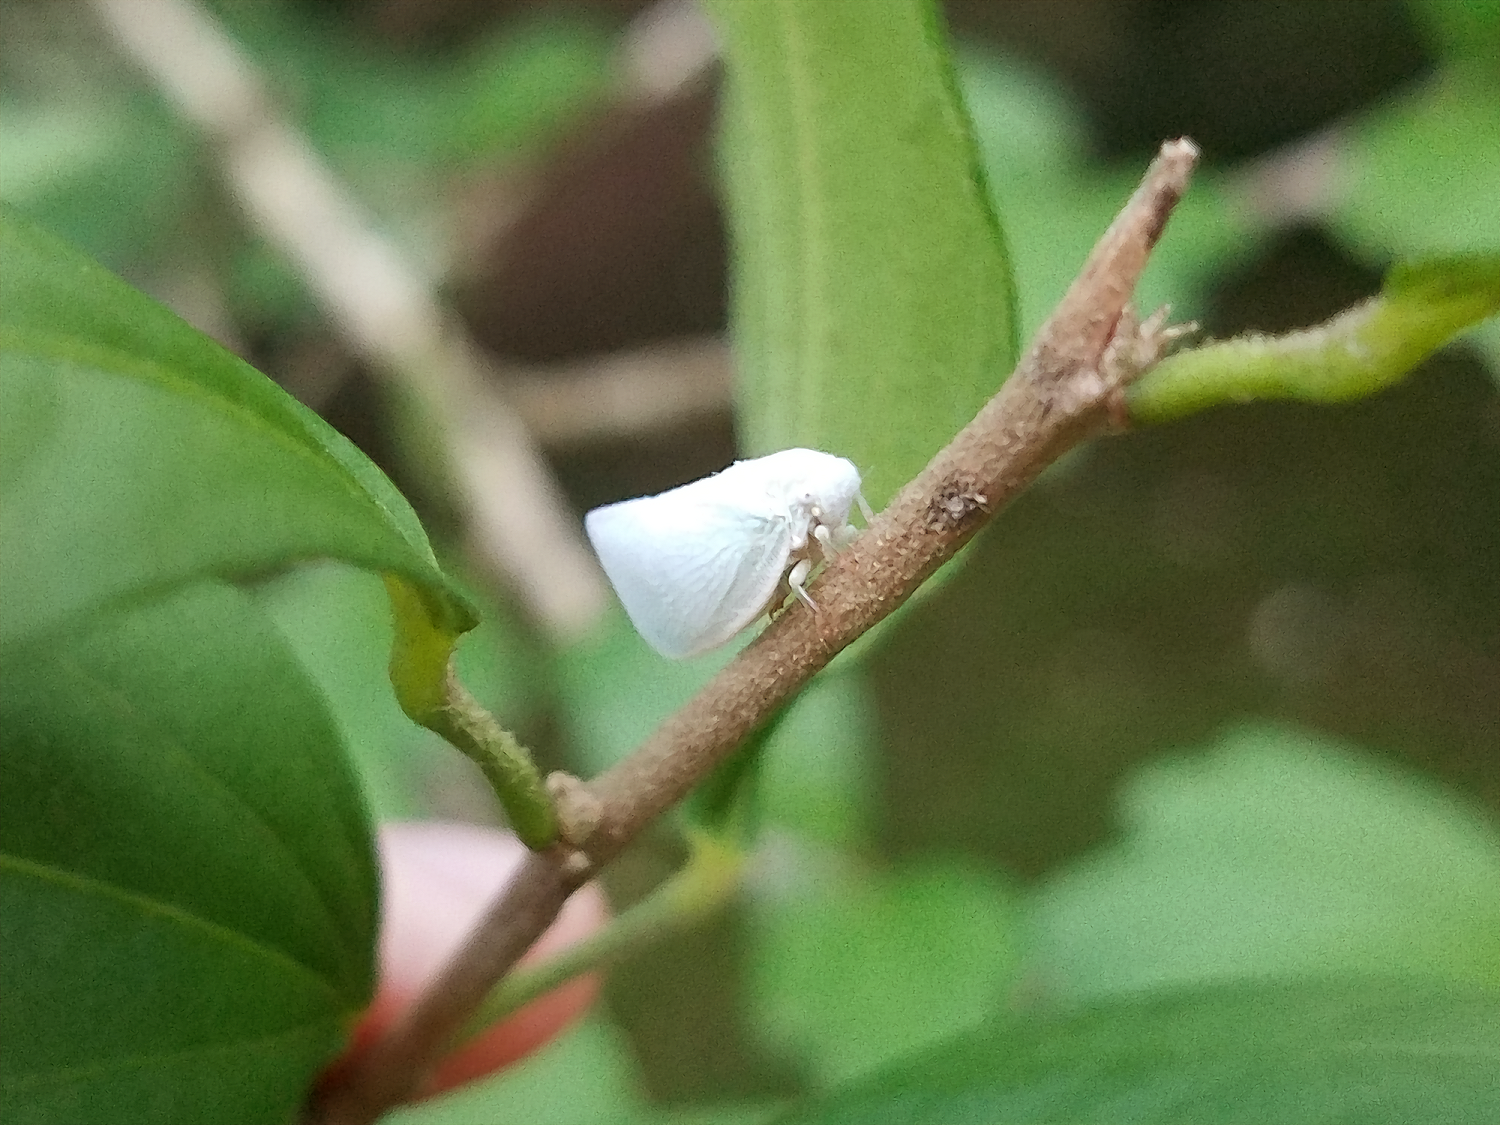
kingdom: Animalia
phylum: Arthropoda
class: Insecta
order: Hemiptera
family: Flatidae
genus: Flatormenis
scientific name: Flatormenis proxima
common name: Northern flatid planthopper
